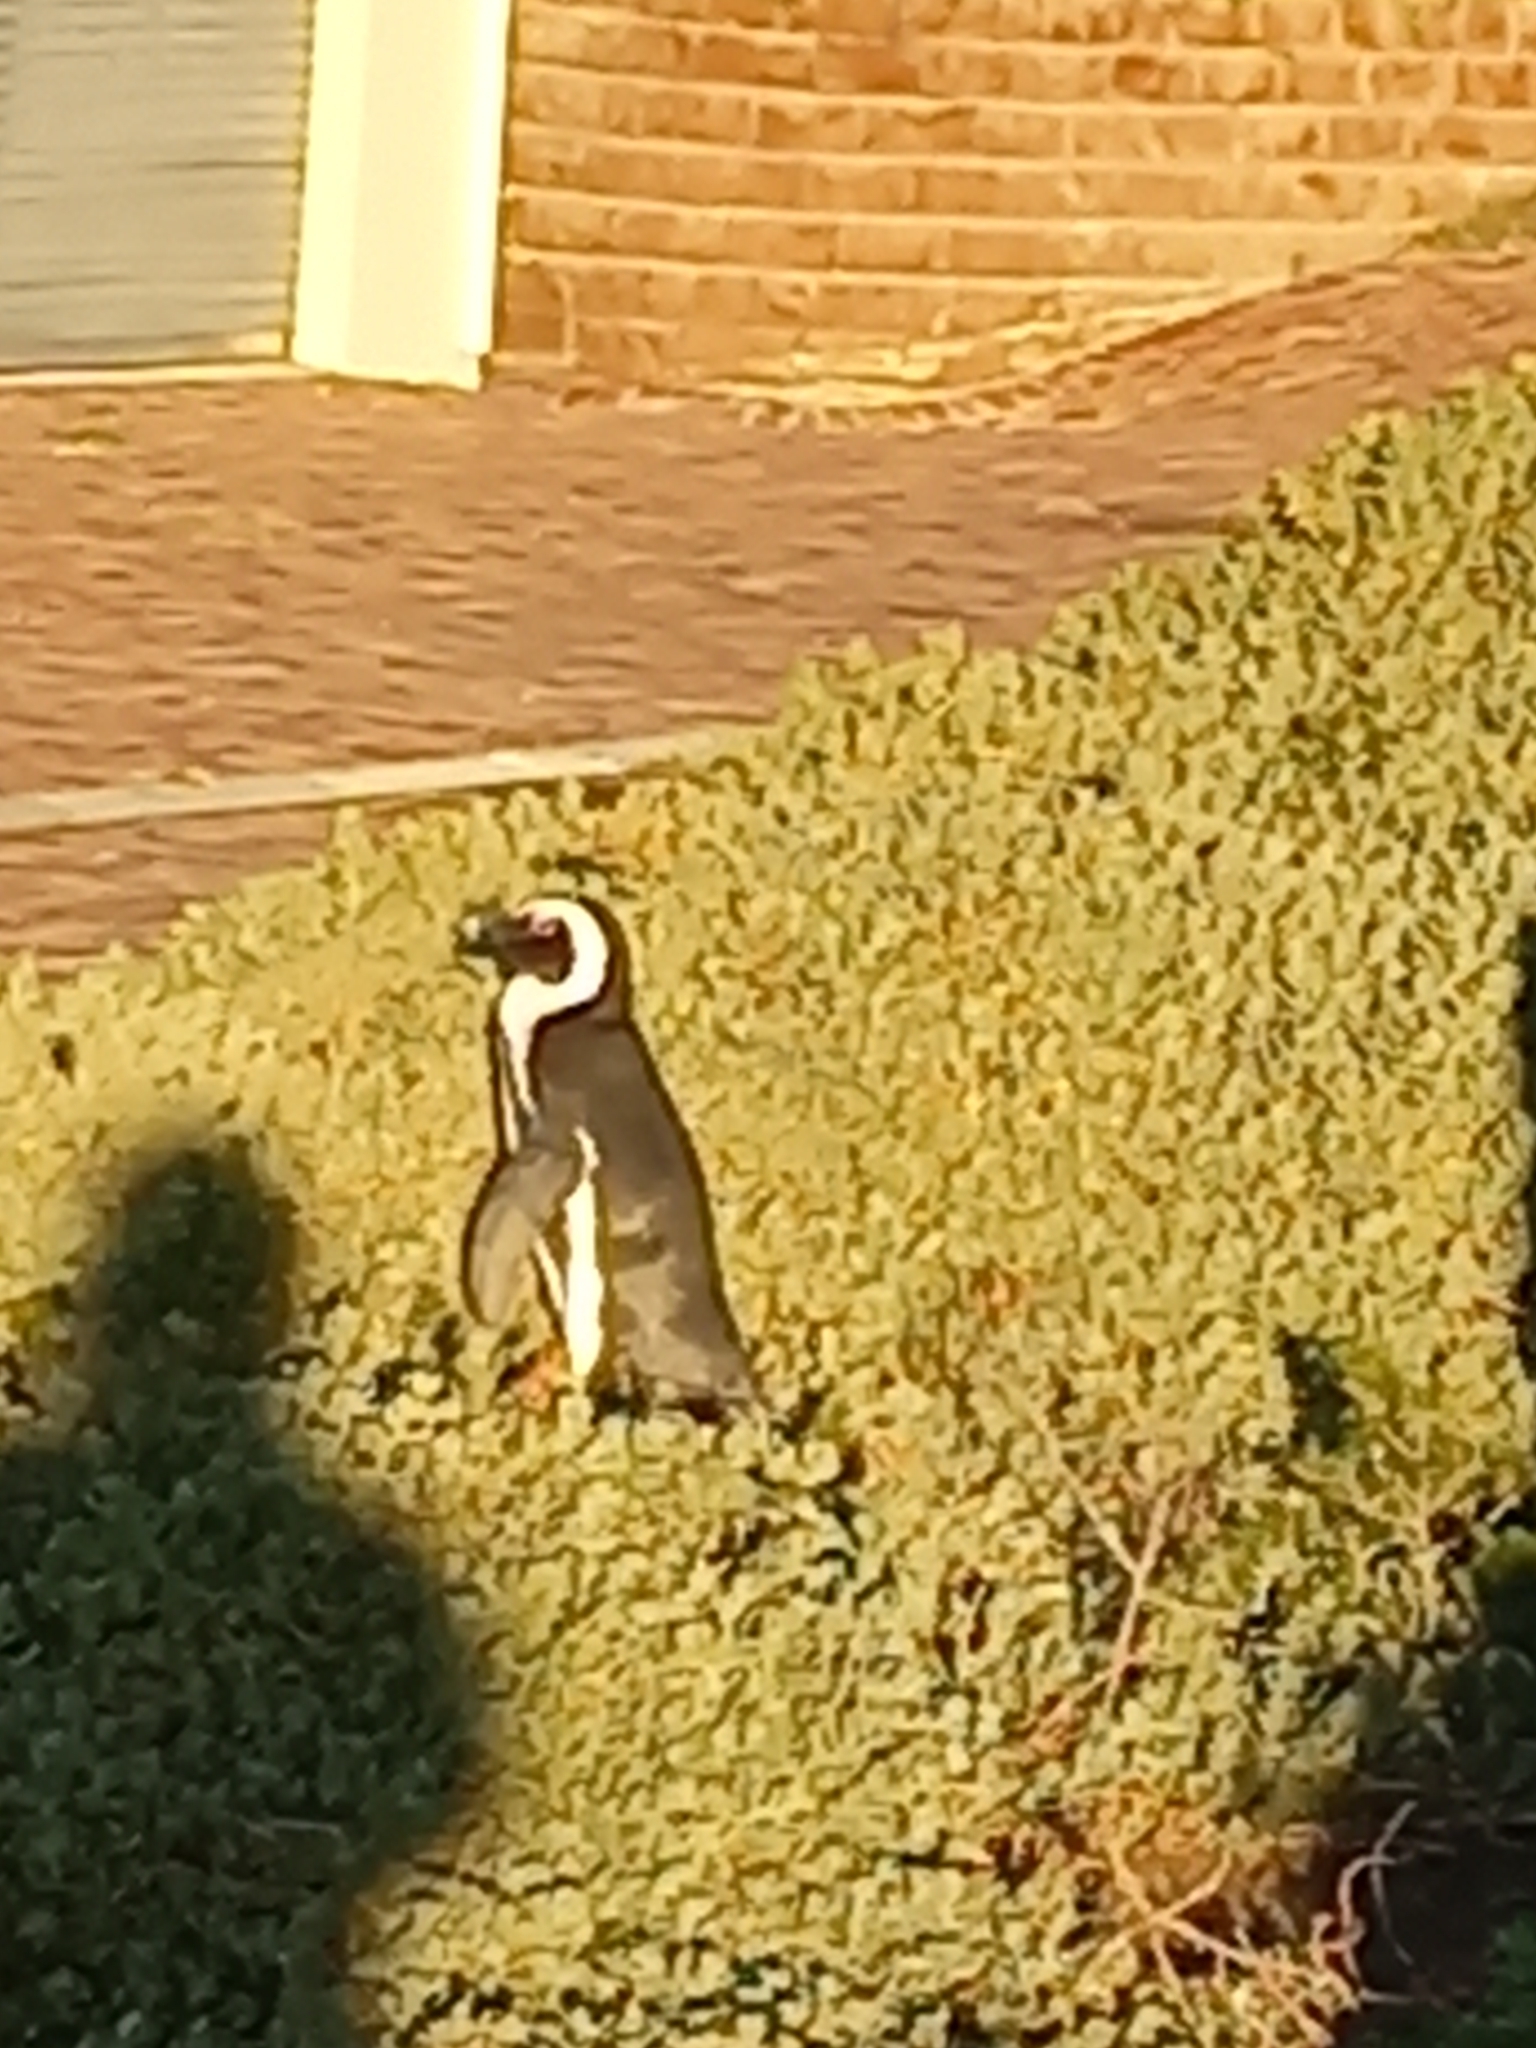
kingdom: Animalia
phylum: Chordata
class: Aves
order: Sphenisciformes
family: Spheniscidae
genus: Spheniscus
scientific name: Spheniscus demersus
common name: African penguin
